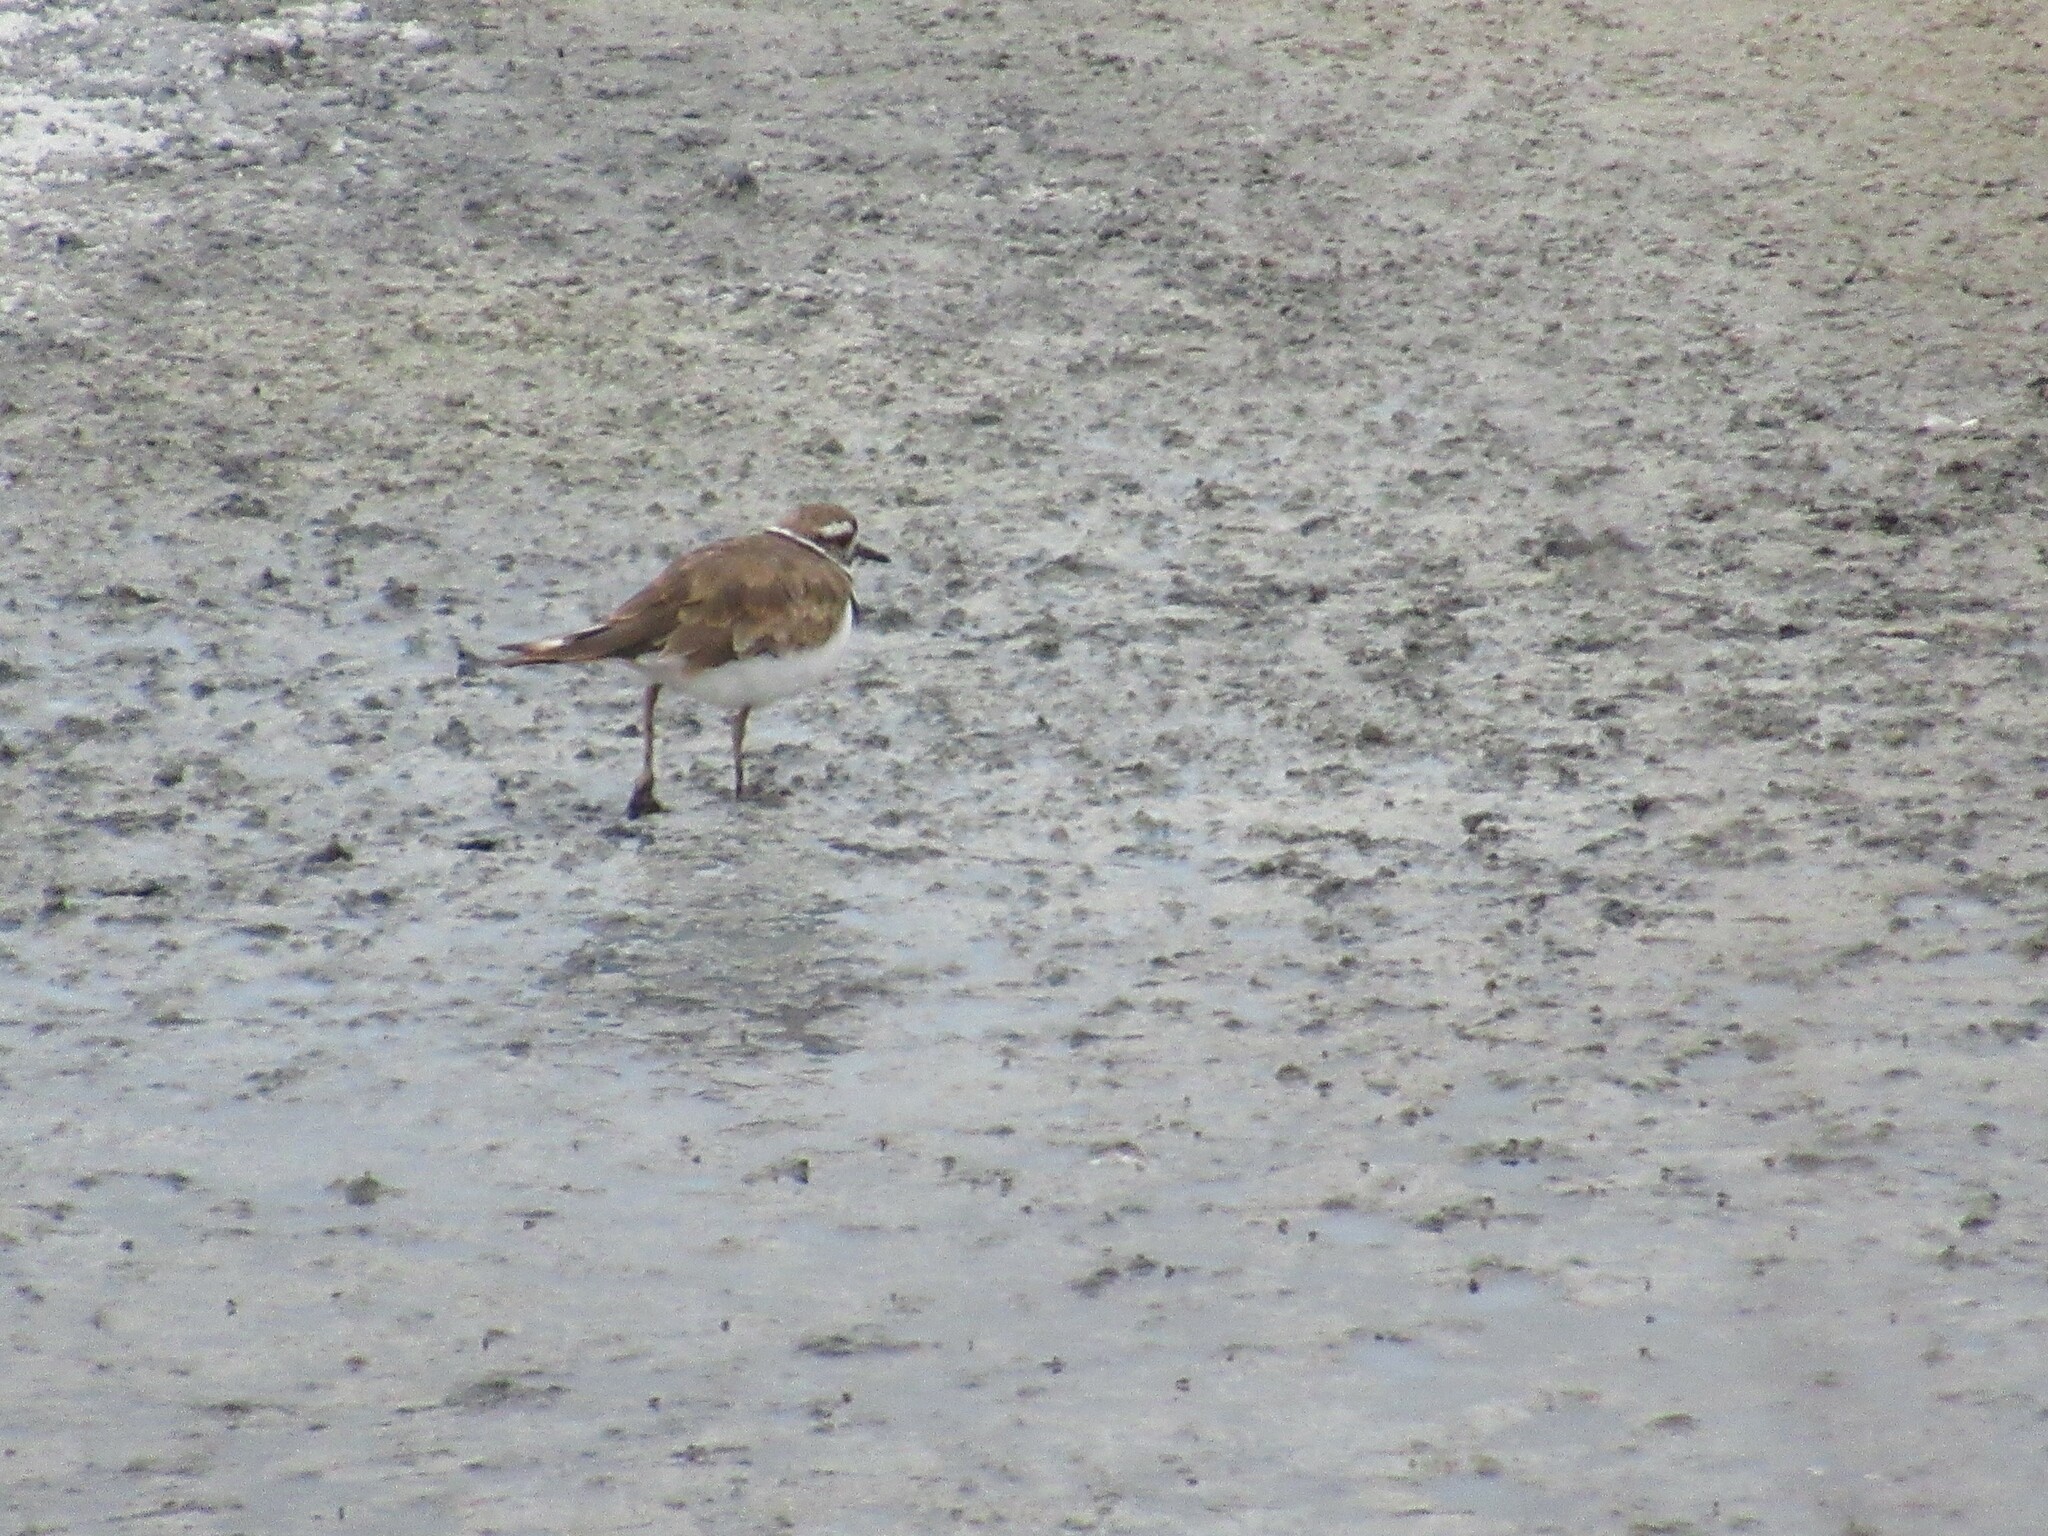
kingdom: Animalia
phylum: Chordata
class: Aves
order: Charadriiformes
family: Charadriidae
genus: Charadrius
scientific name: Charadrius vociferus
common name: Killdeer
